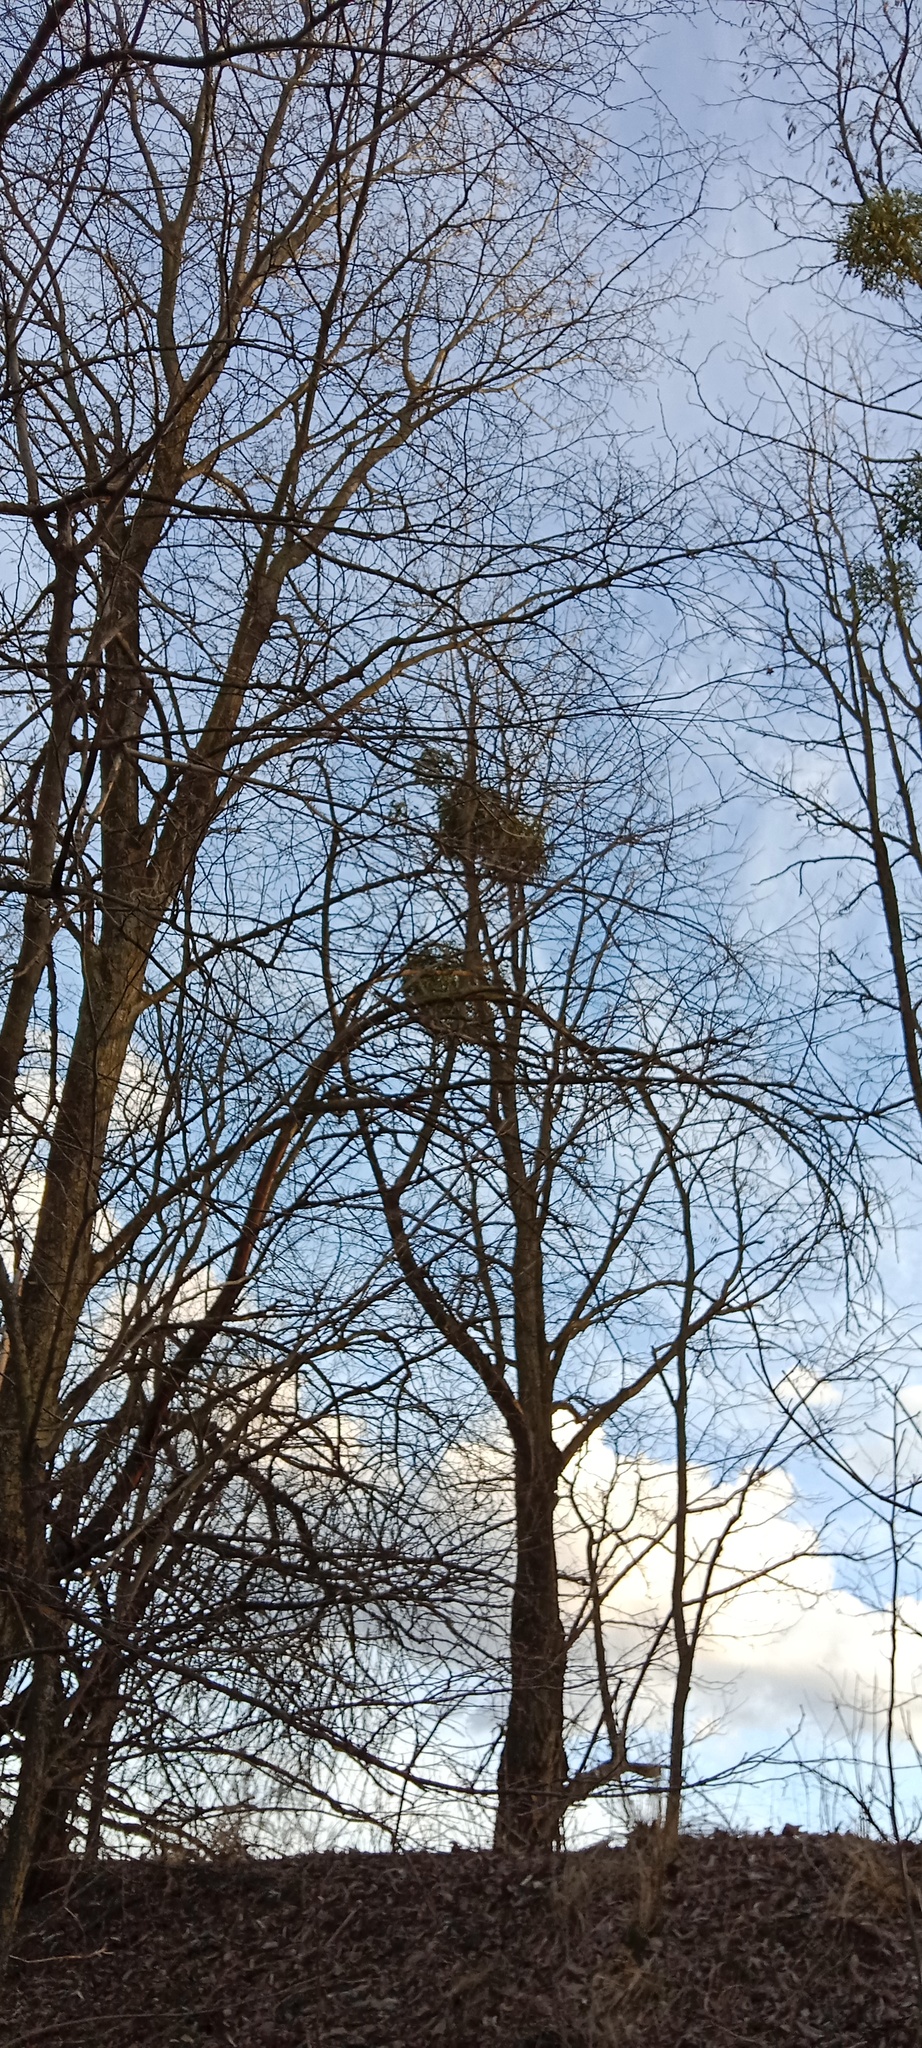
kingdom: Plantae
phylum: Tracheophyta
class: Magnoliopsida
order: Santalales
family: Viscaceae
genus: Viscum
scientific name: Viscum album
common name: Mistletoe
